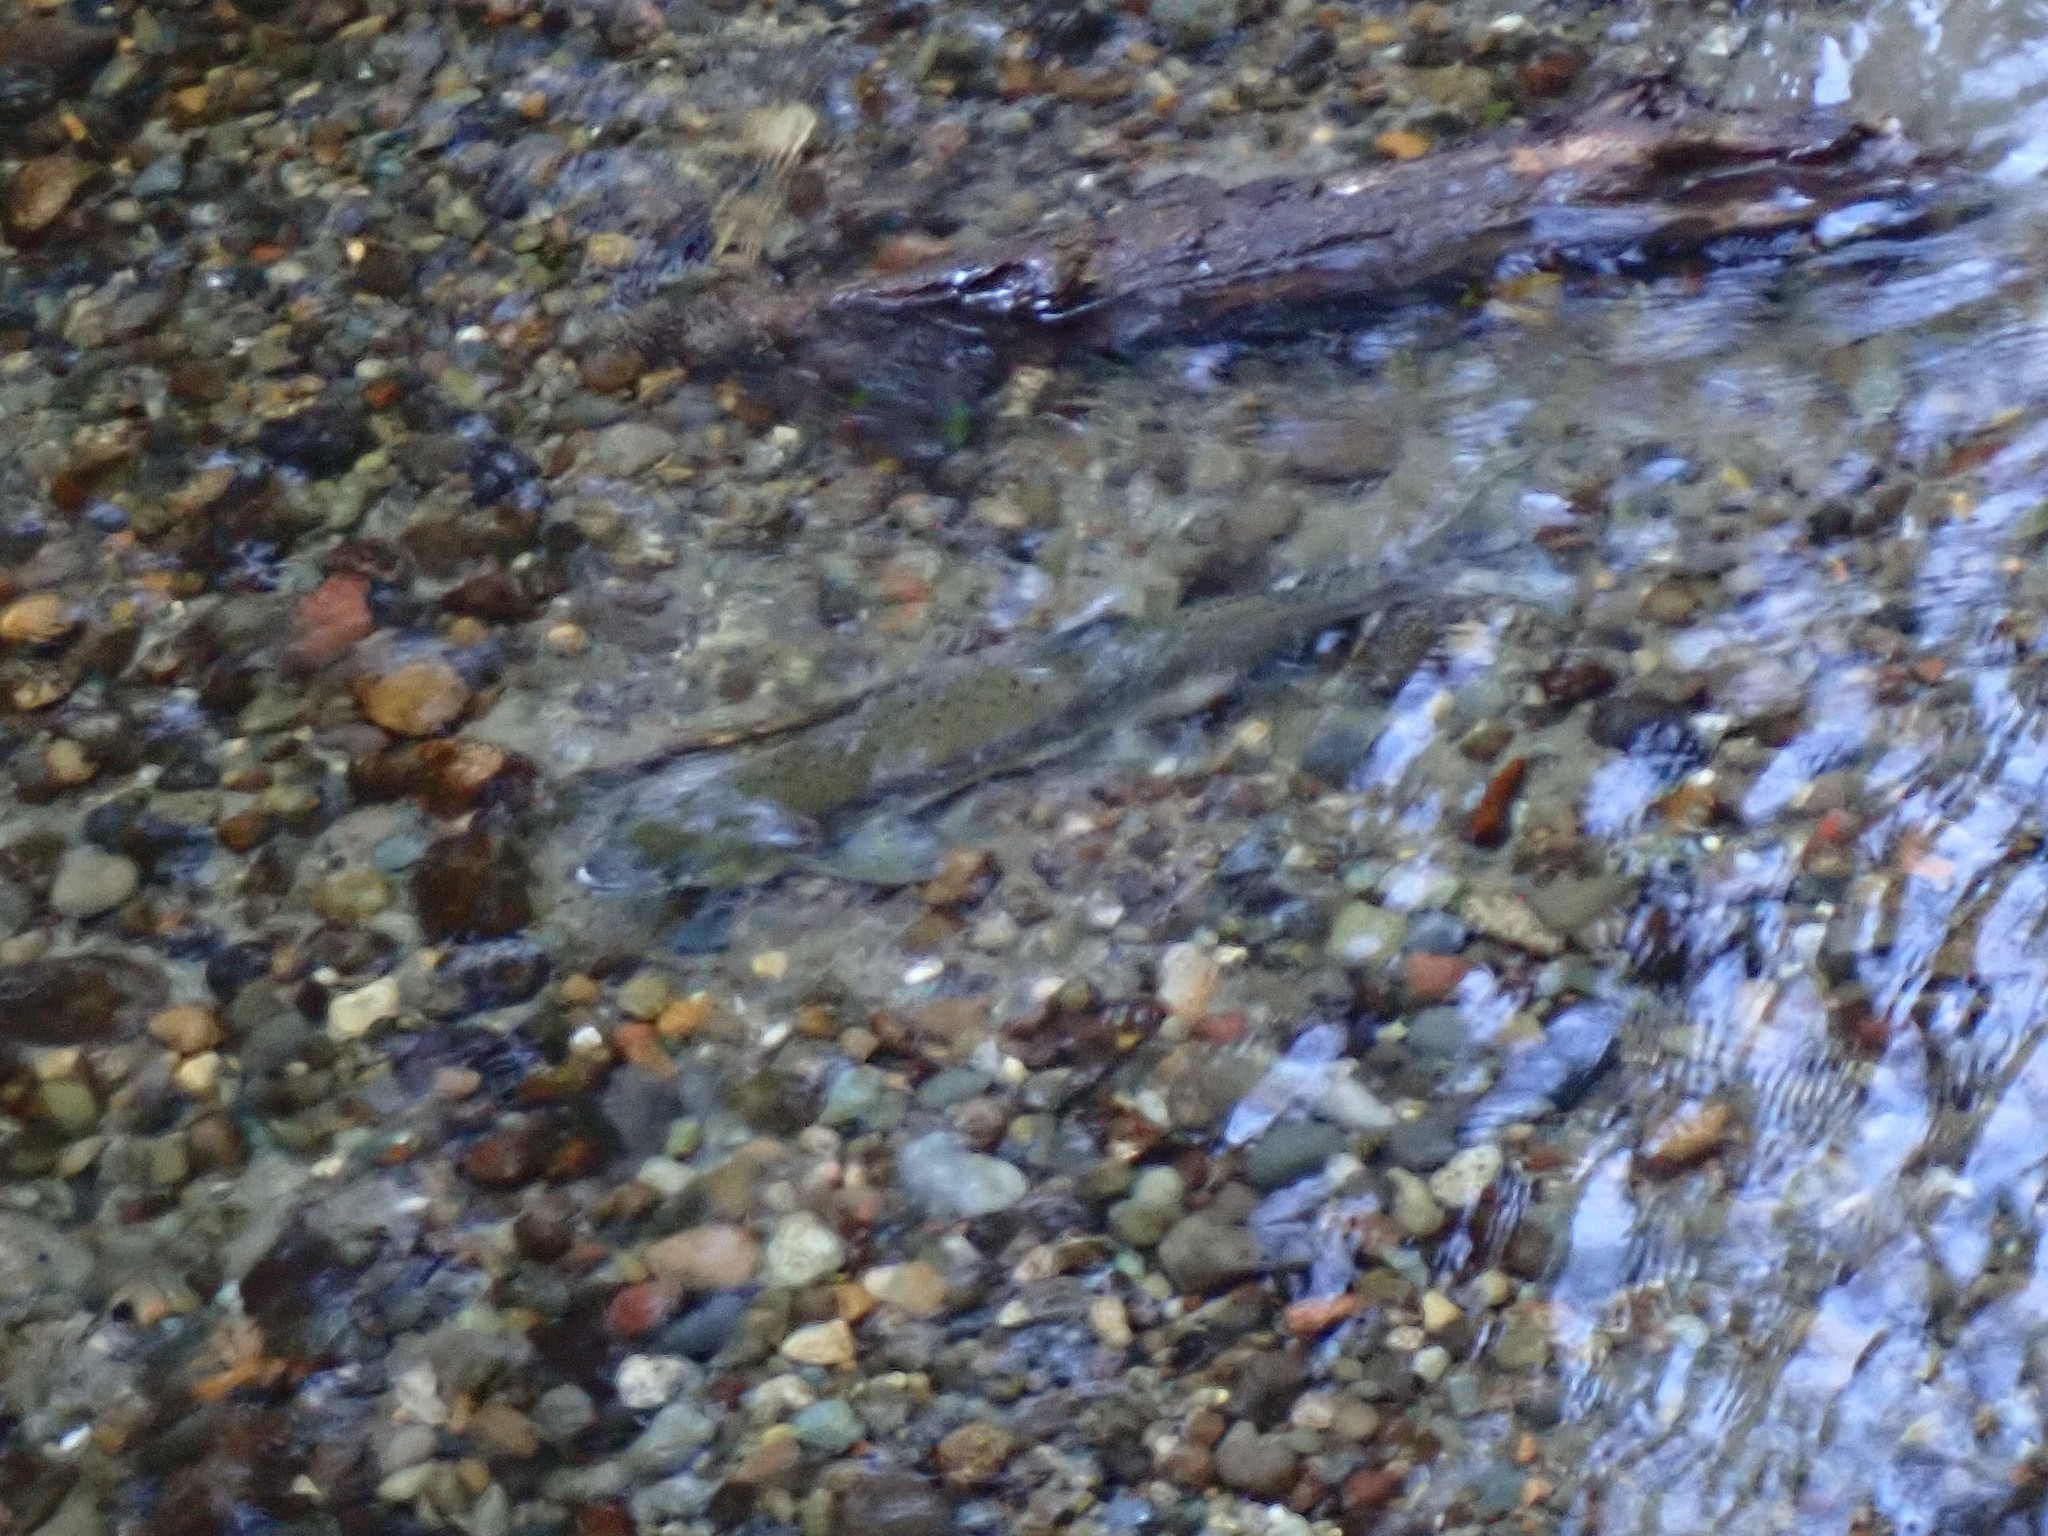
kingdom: Animalia
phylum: Chordata
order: Salmoniformes
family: Salmonidae
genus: Oncorhynchus
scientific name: Oncorhynchus gorbuscha
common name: Humpback salmon
